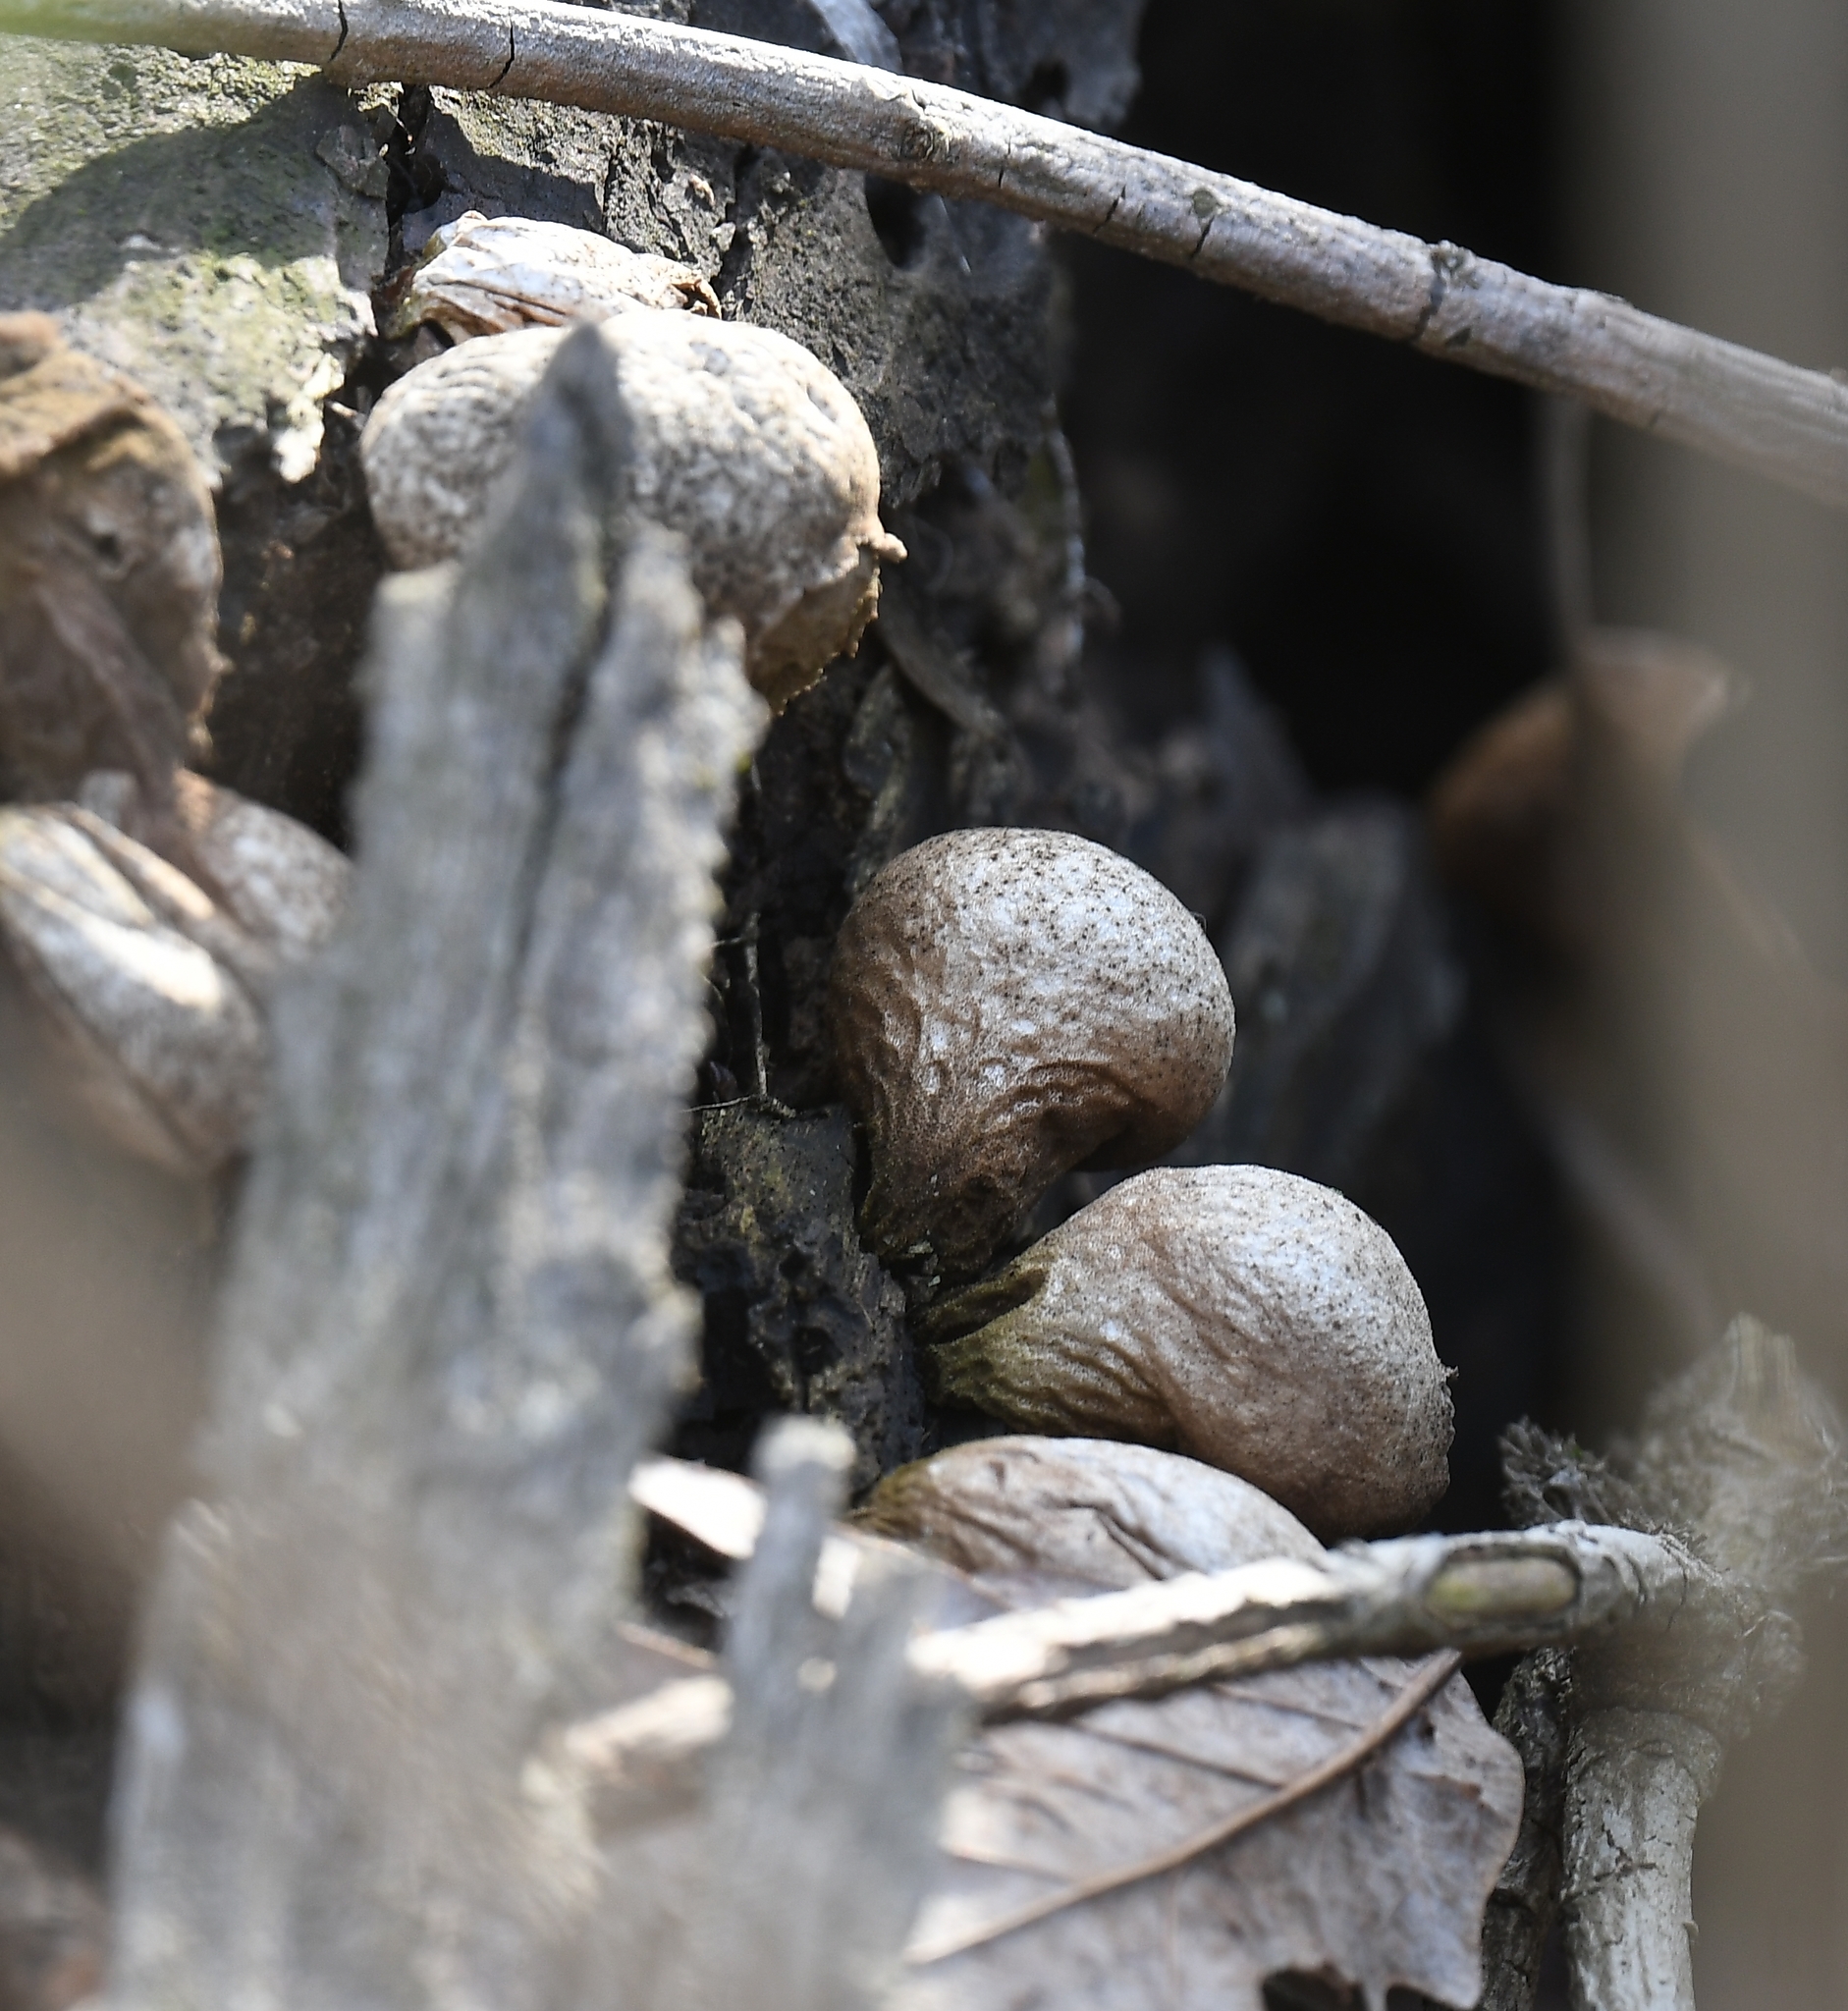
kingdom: Fungi
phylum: Basidiomycota
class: Agaricomycetes
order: Agaricales
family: Lycoperdaceae
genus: Apioperdon
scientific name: Apioperdon pyriforme
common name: Pear-shaped puffball
